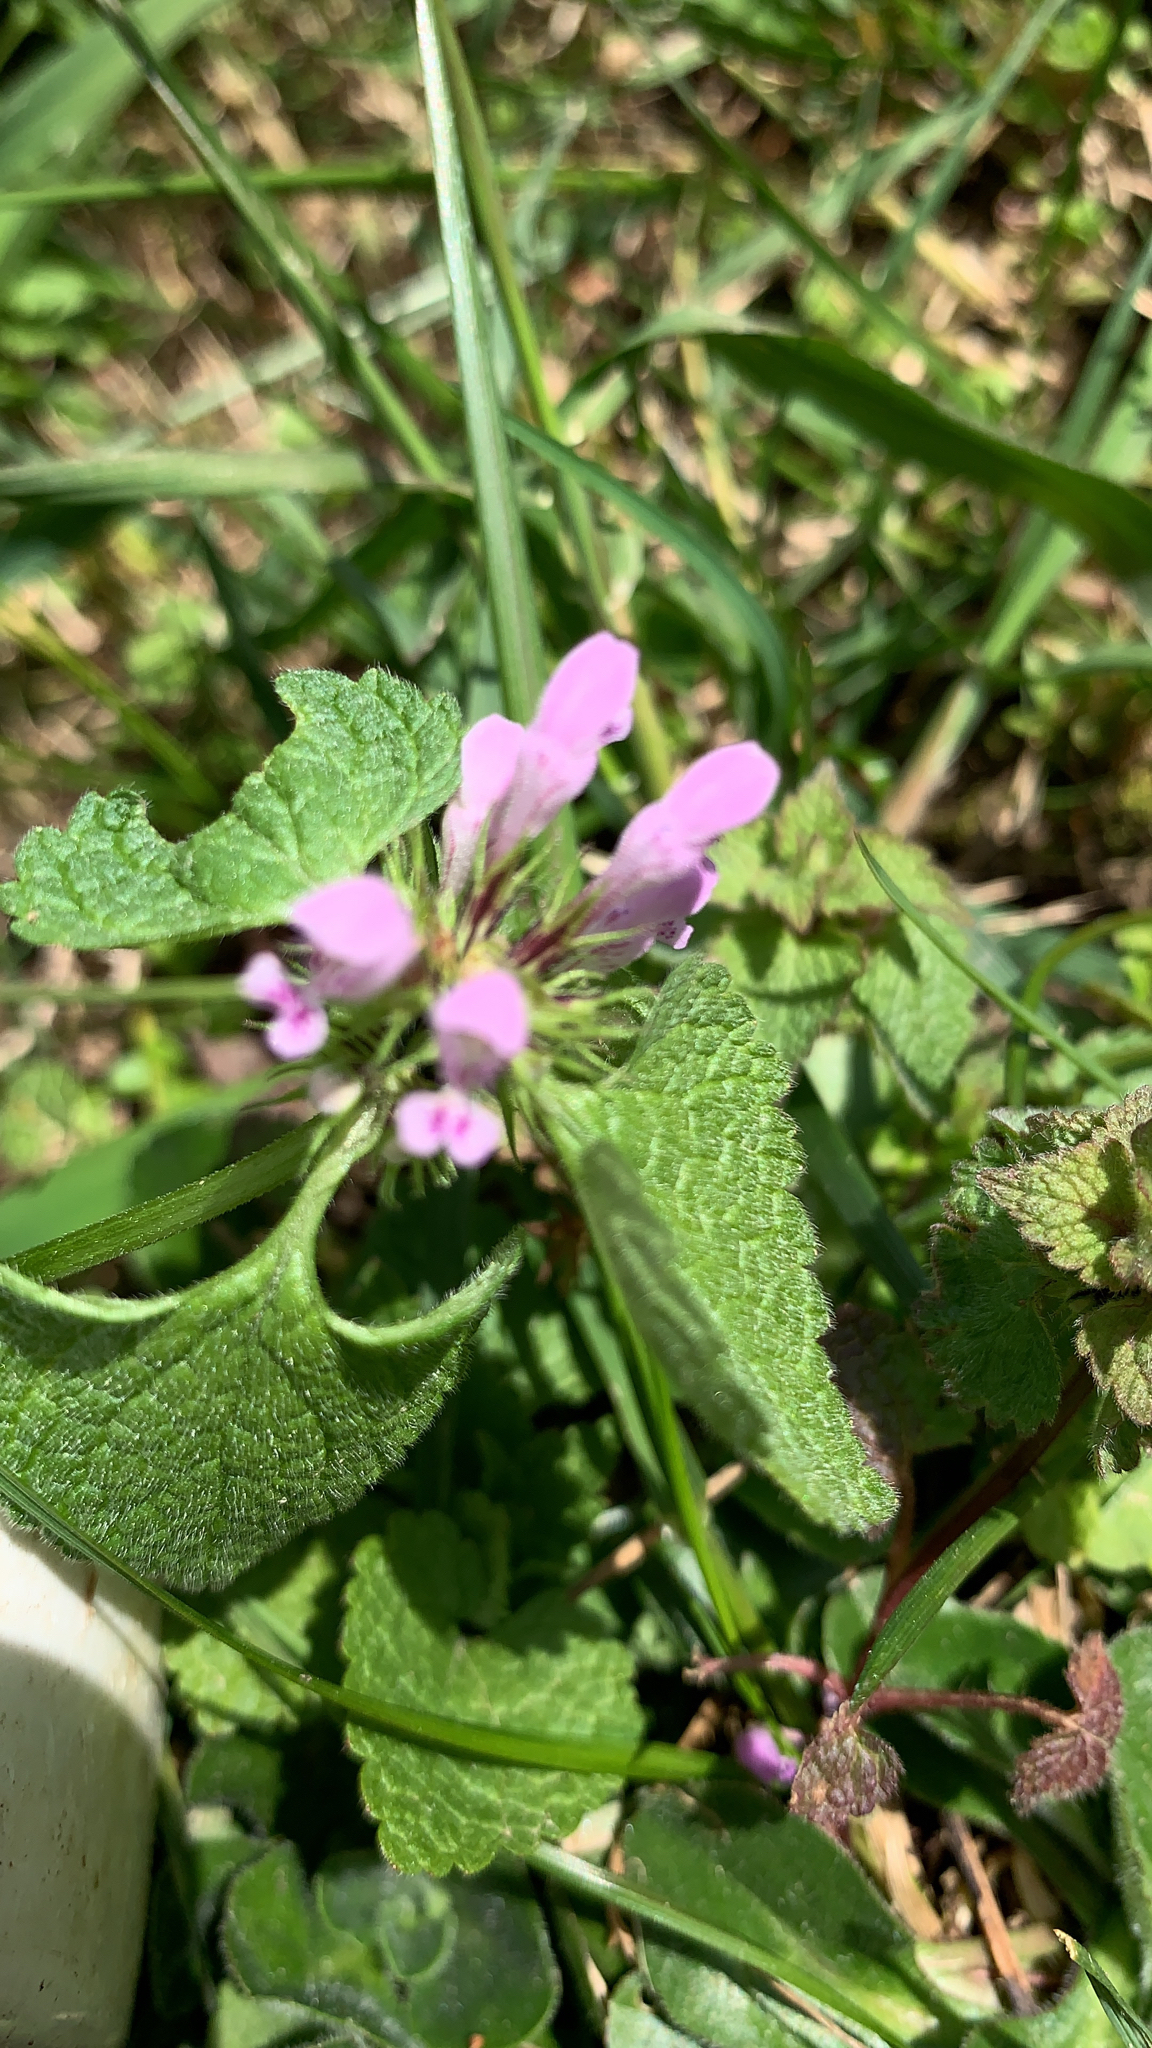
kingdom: Plantae
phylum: Tracheophyta
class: Magnoliopsida
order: Lamiales
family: Lamiaceae
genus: Lamium
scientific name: Lamium purpureum
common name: Red dead-nettle
